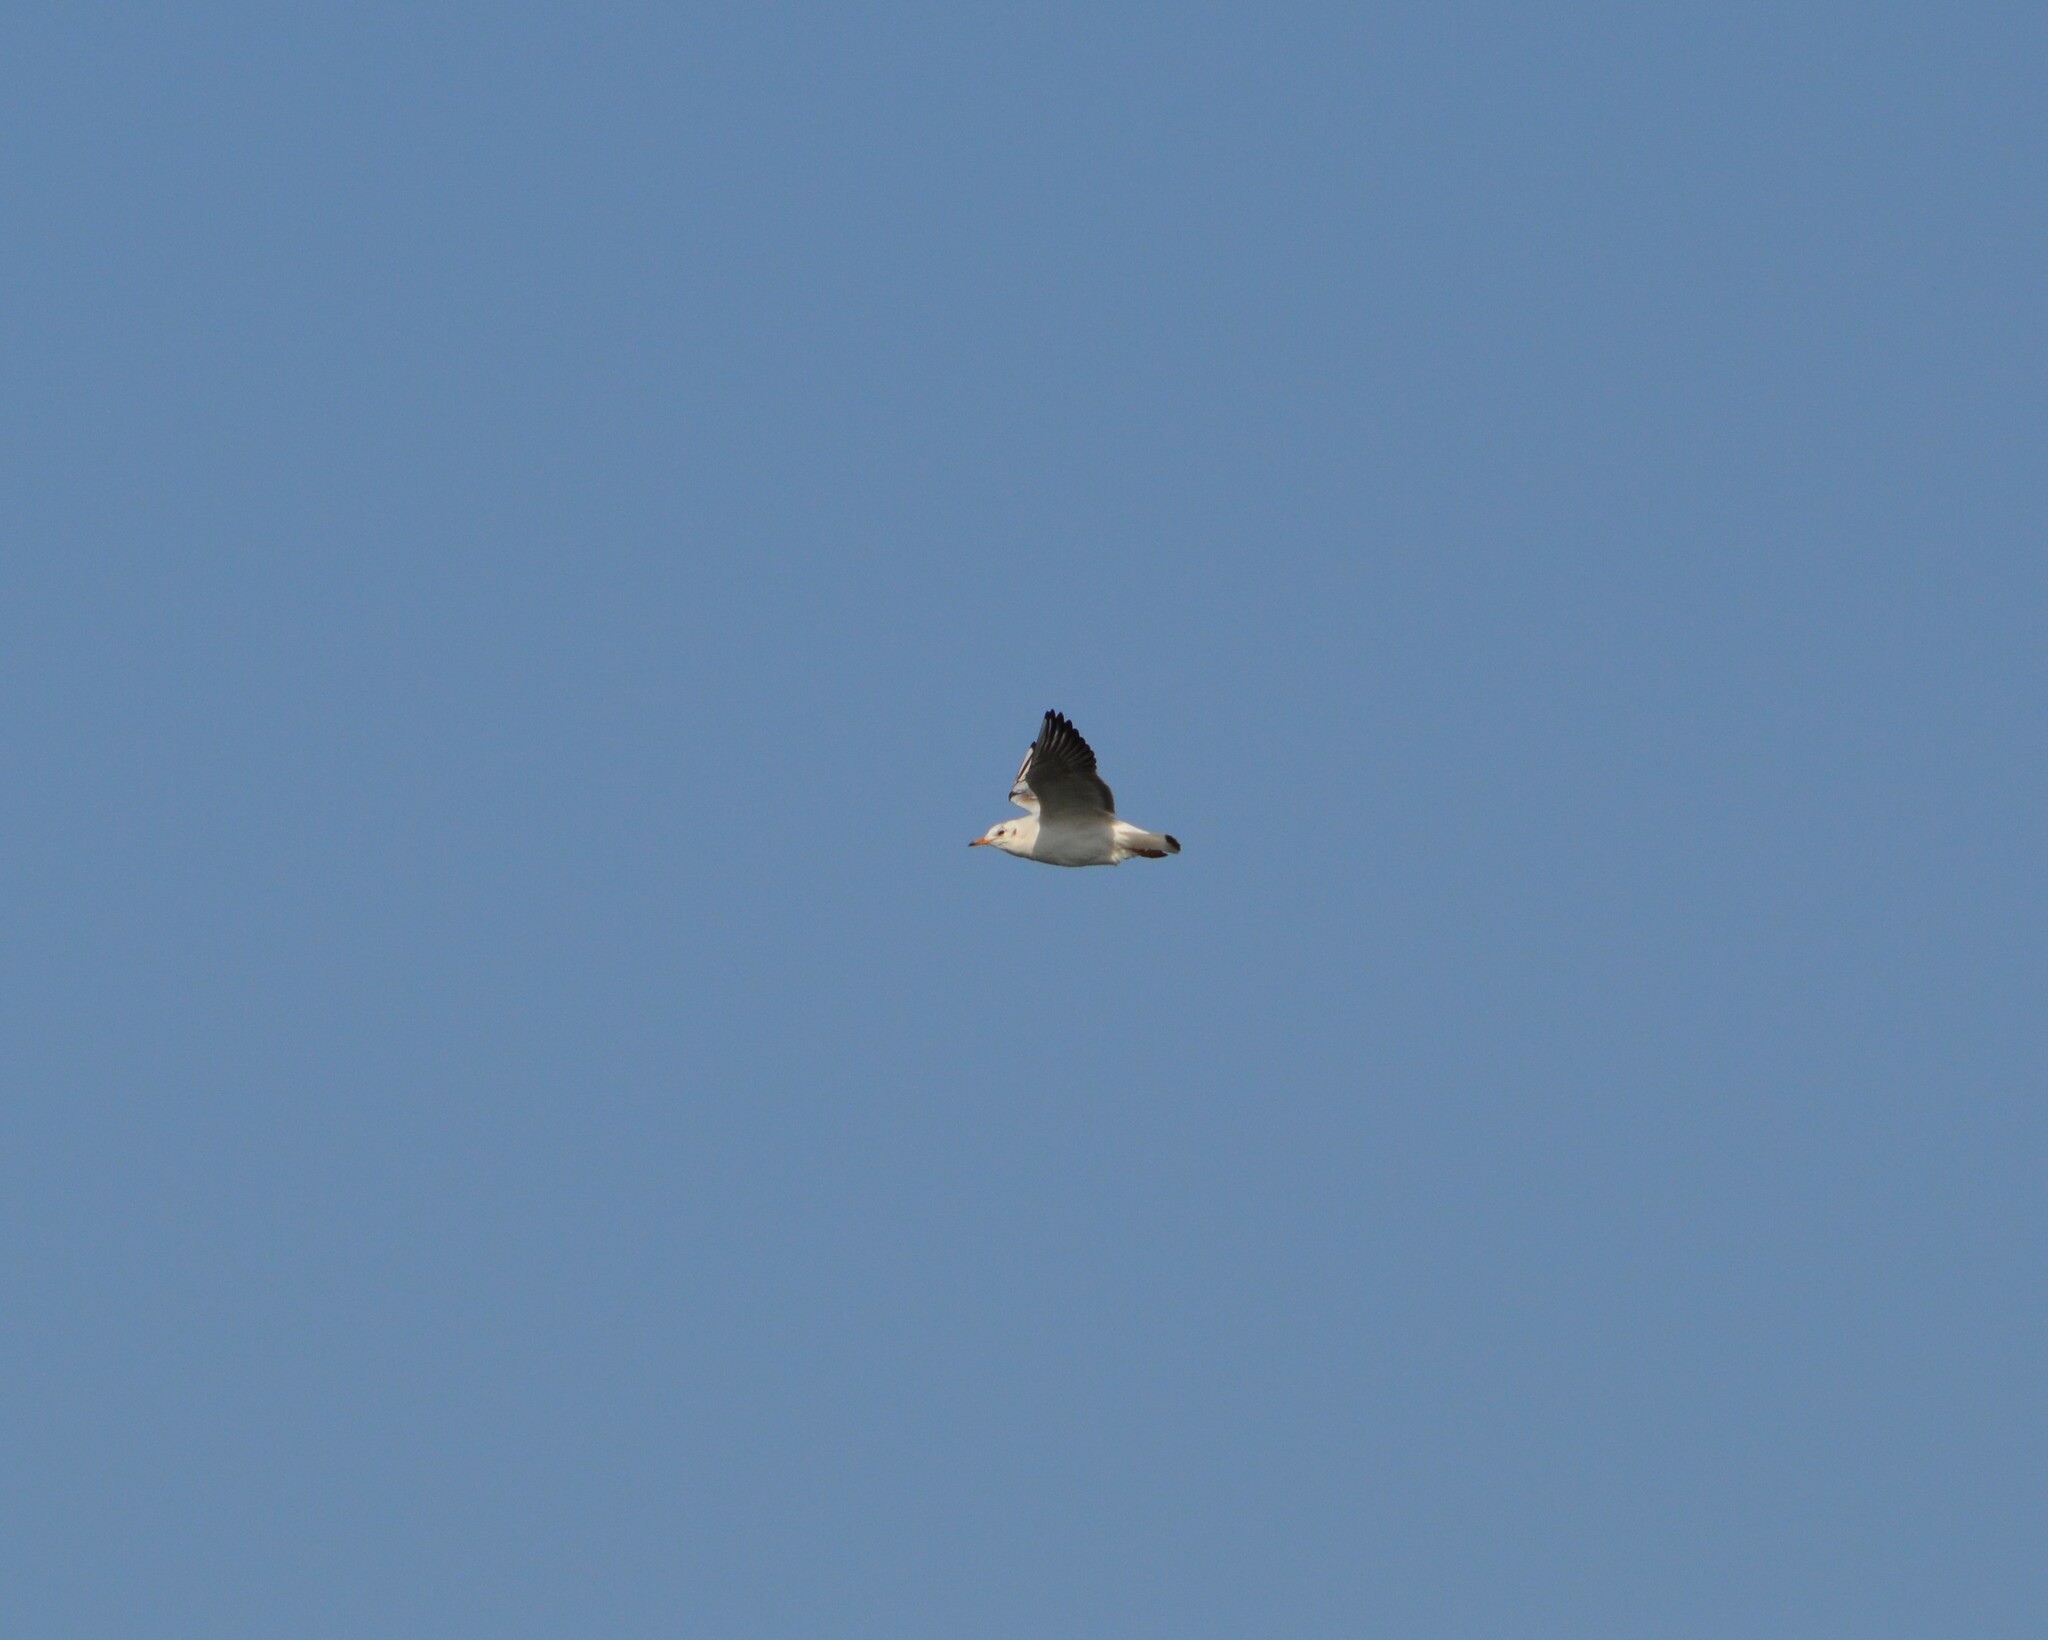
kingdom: Animalia
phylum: Chordata
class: Aves
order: Charadriiformes
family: Laridae
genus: Chroicocephalus
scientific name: Chroicocephalus ridibundus
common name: Black-headed gull
